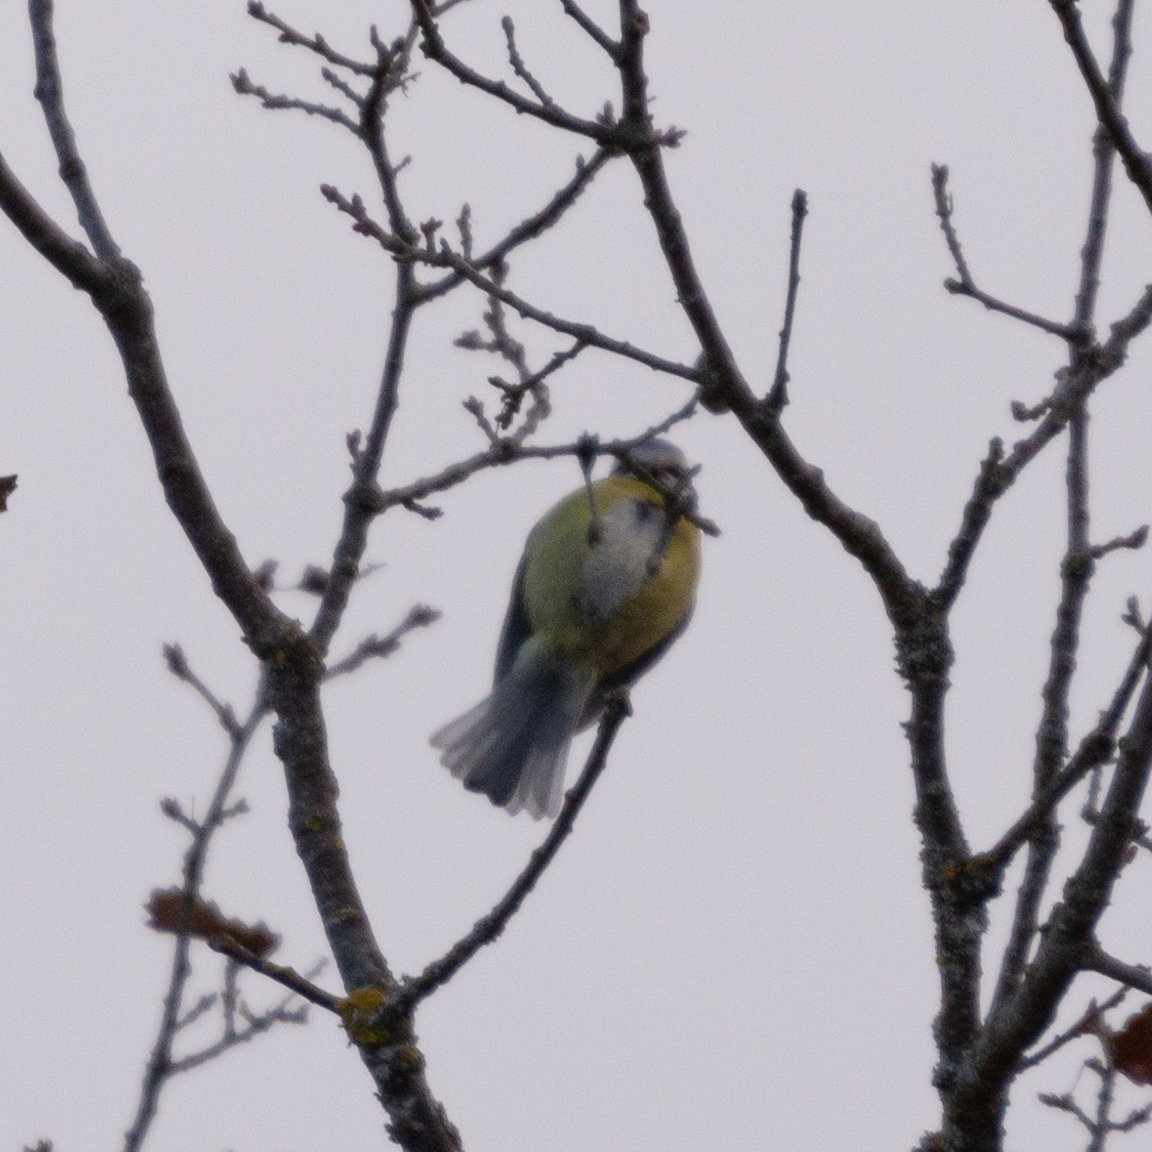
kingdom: Animalia
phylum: Chordata
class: Aves
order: Passeriformes
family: Paridae
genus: Cyanistes
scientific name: Cyanistes caeruleus
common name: Eurasian blue tit
